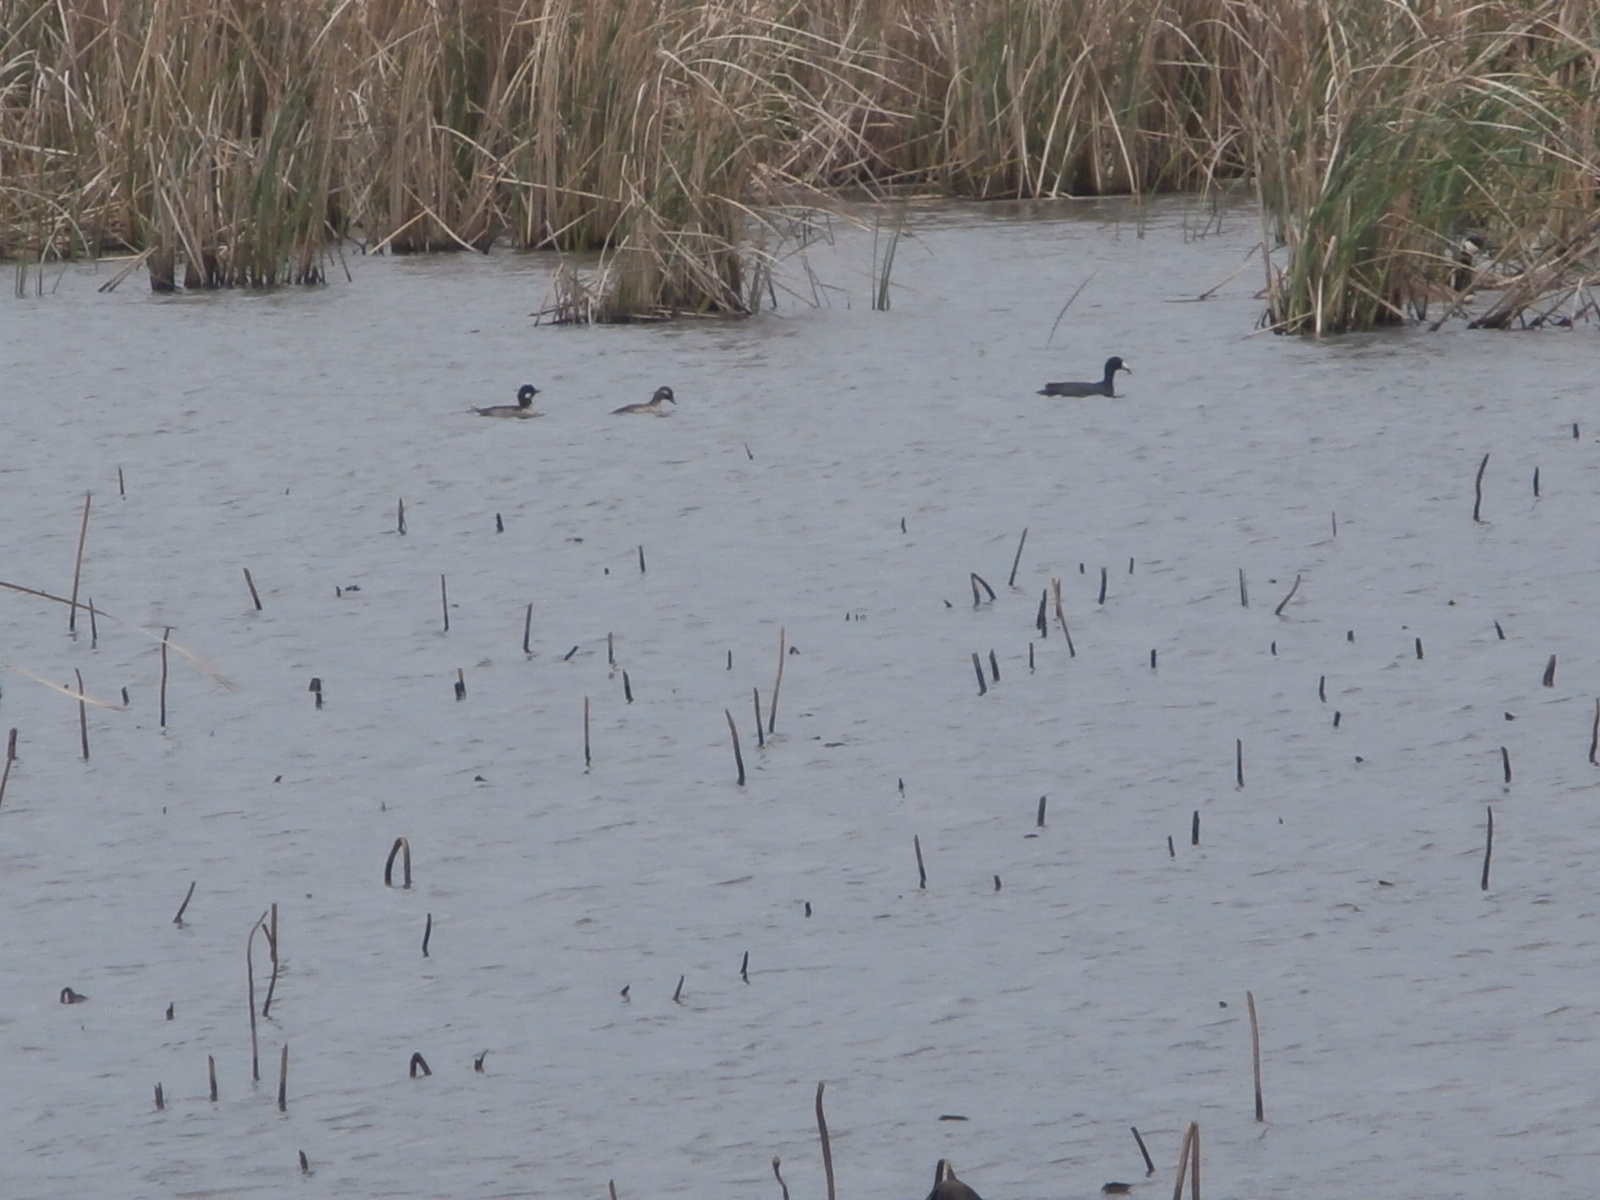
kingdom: Animalia
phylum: Chordata
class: Aves
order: Anseriformes
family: Anatidae
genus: Bucephala
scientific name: Bucephala albeola
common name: Bufflehead
